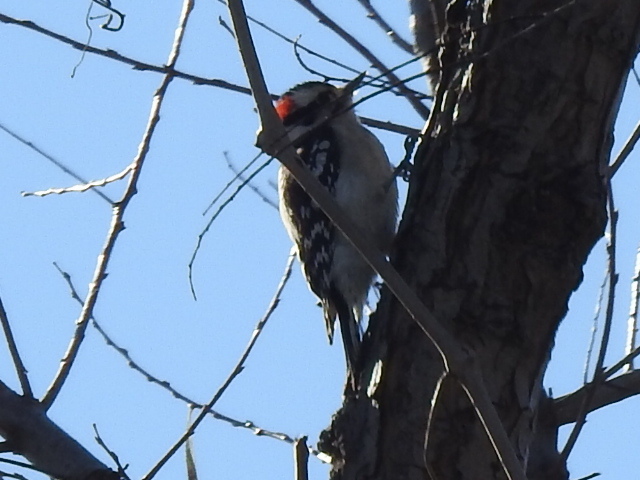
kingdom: Animalia
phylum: Chordata
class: Aves
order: Piciformes
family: Picidae
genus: Dryobates
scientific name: Dryobates pubescens
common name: Downy woodpecker
